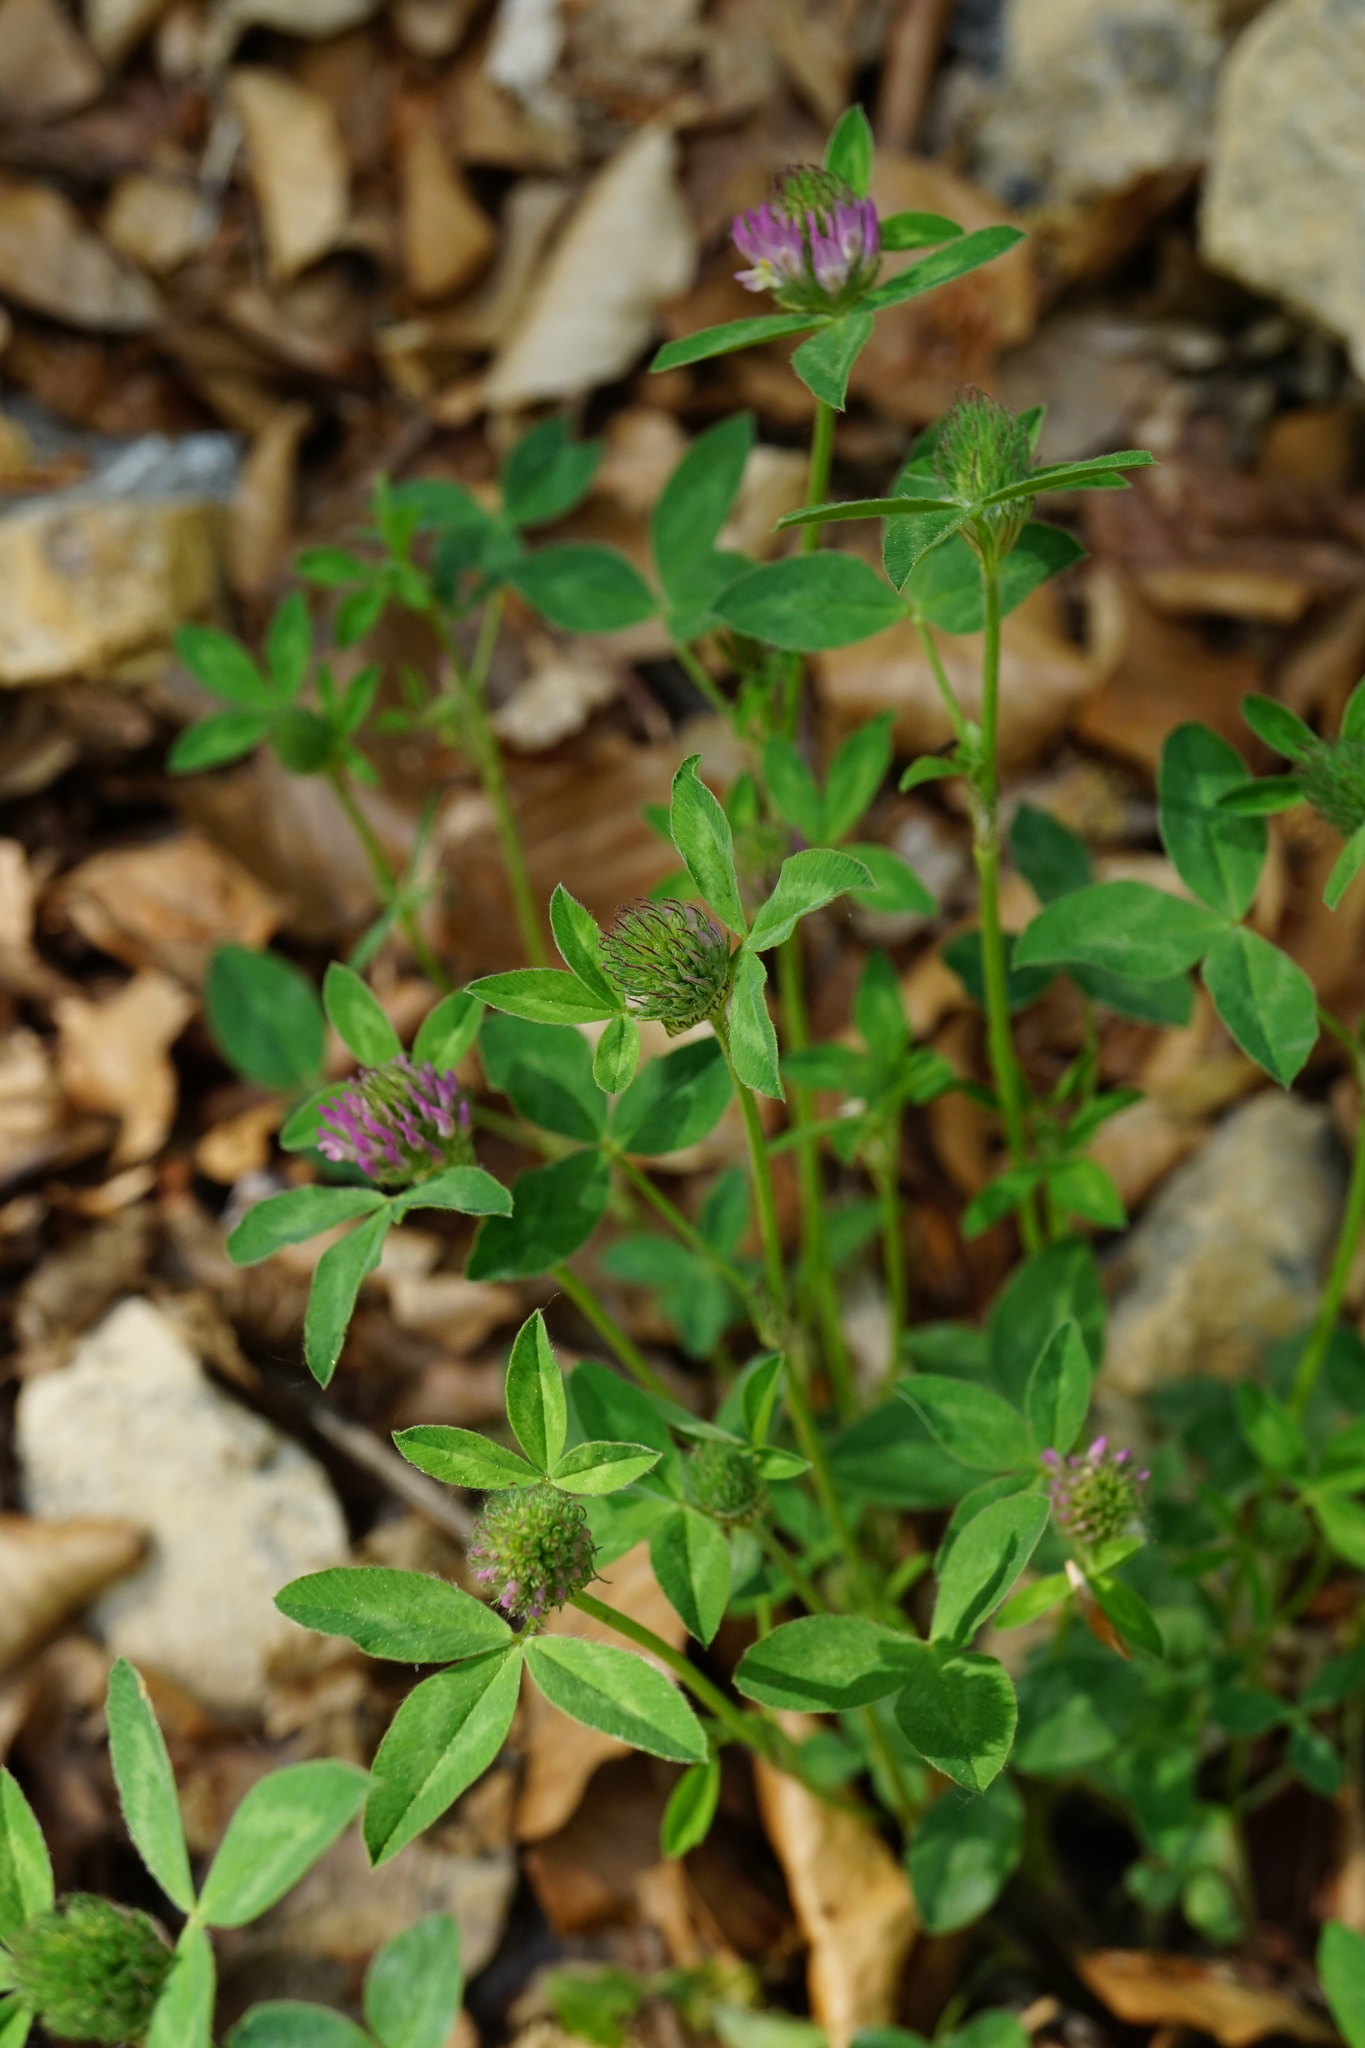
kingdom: Plantae
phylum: Tracheophyta
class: Magnoliopsida
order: Fabales
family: Fabaceae
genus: Trifolium
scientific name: Trifolium pratense
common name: Red clover
